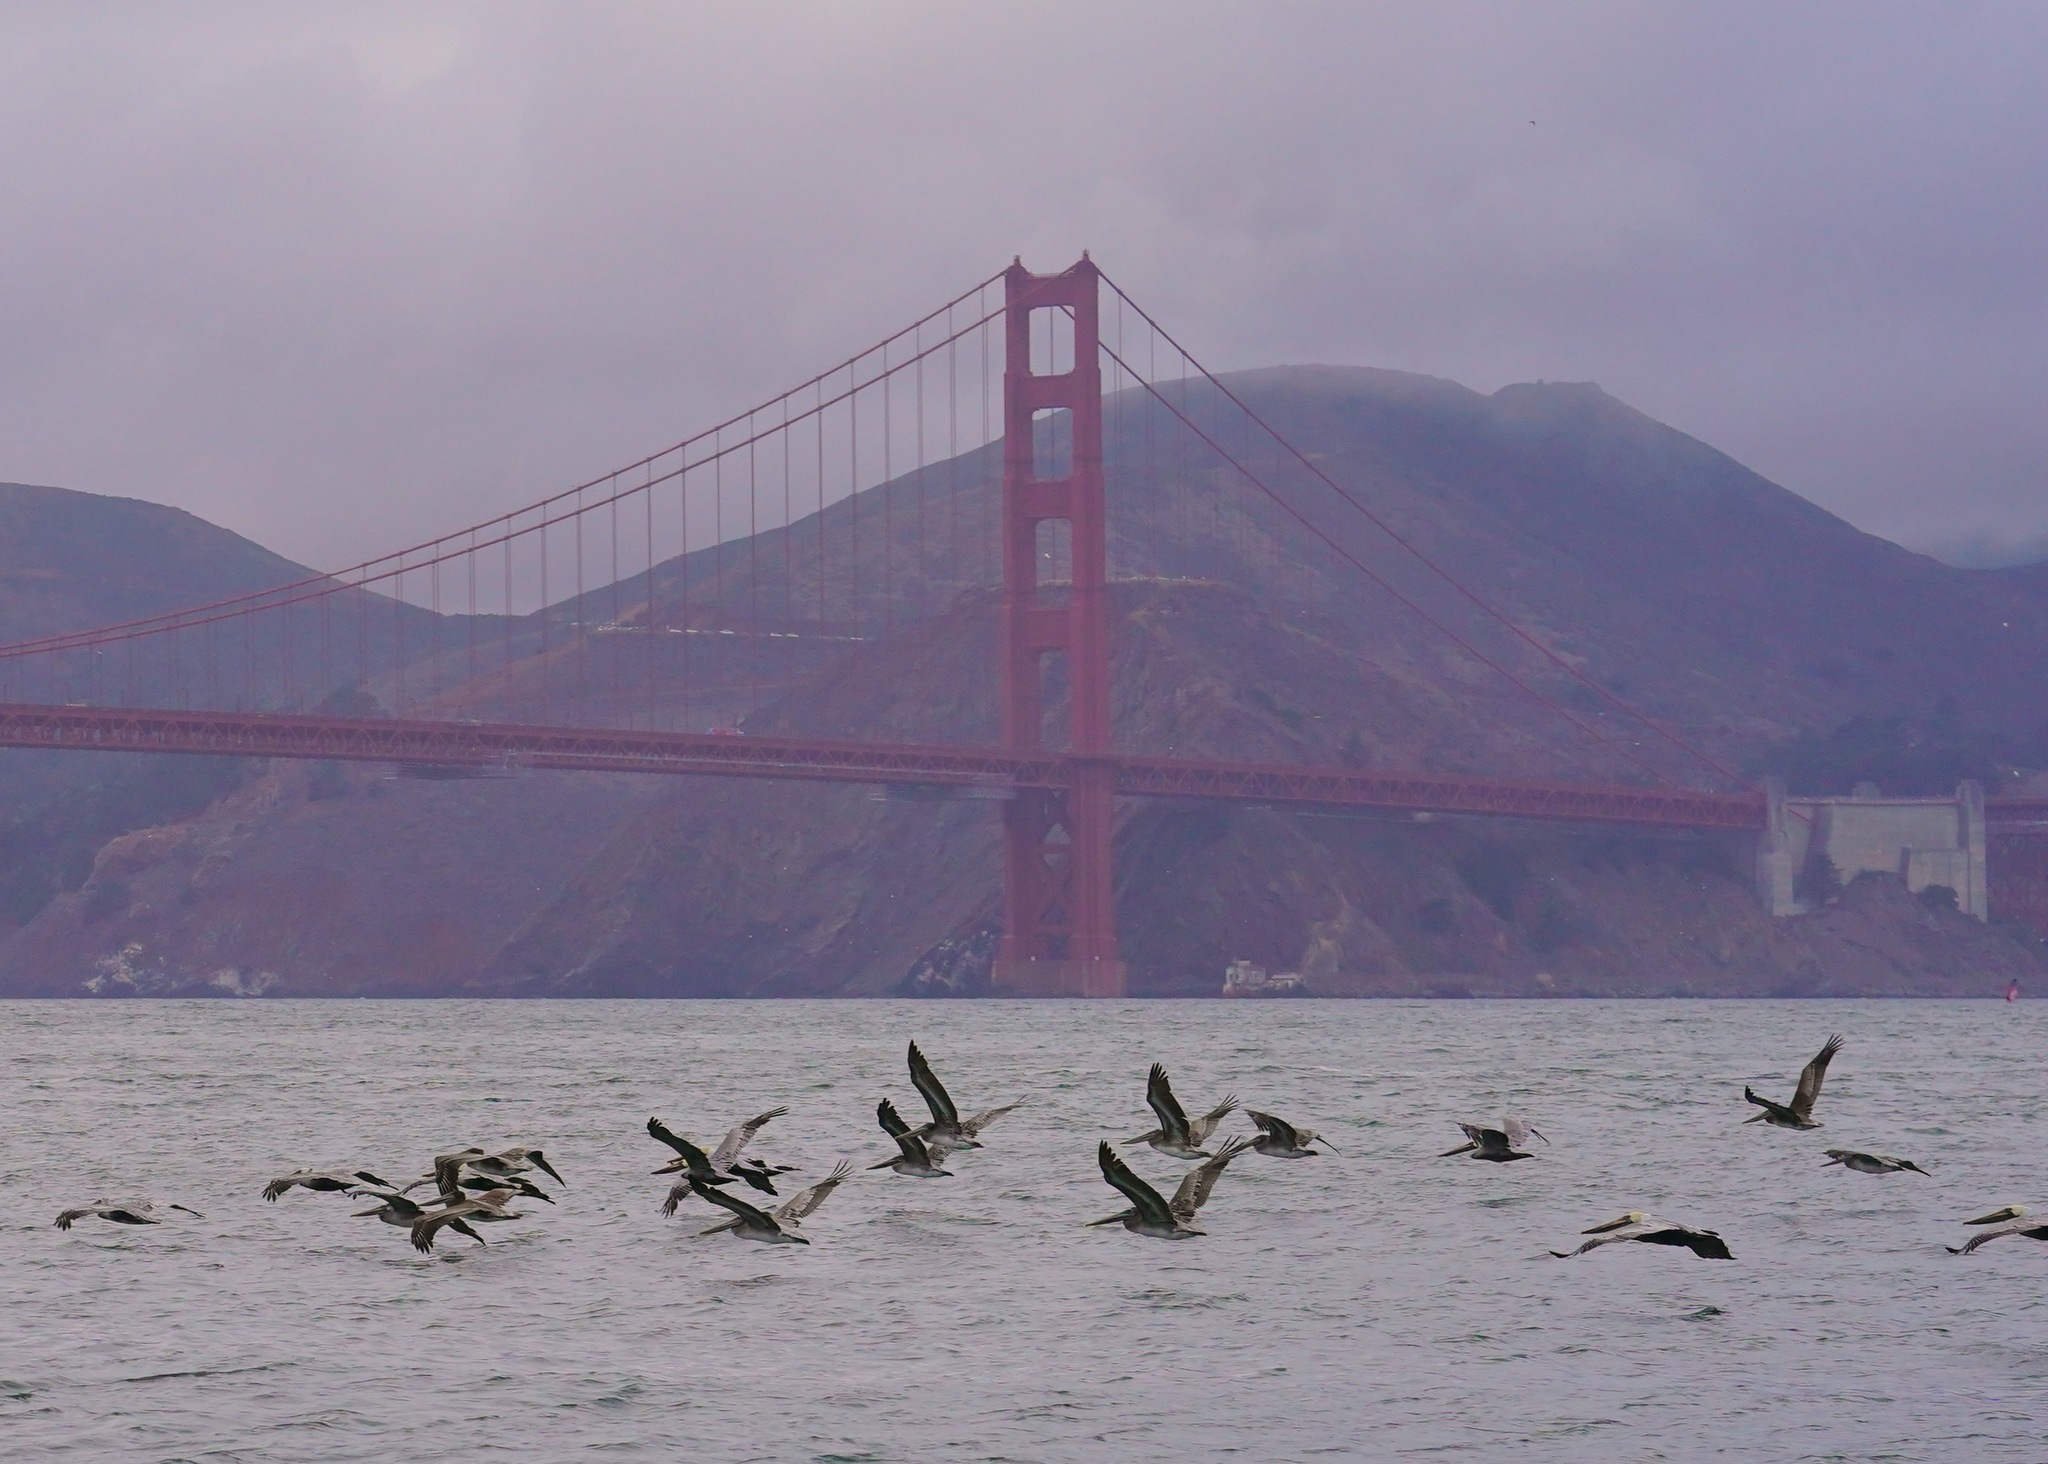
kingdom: Animalia
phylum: Chordata
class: Aves
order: Pelecaniformes
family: Pelecanidae
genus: Pelecanus
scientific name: Pelecanus occidentalis
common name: Brown pelican
